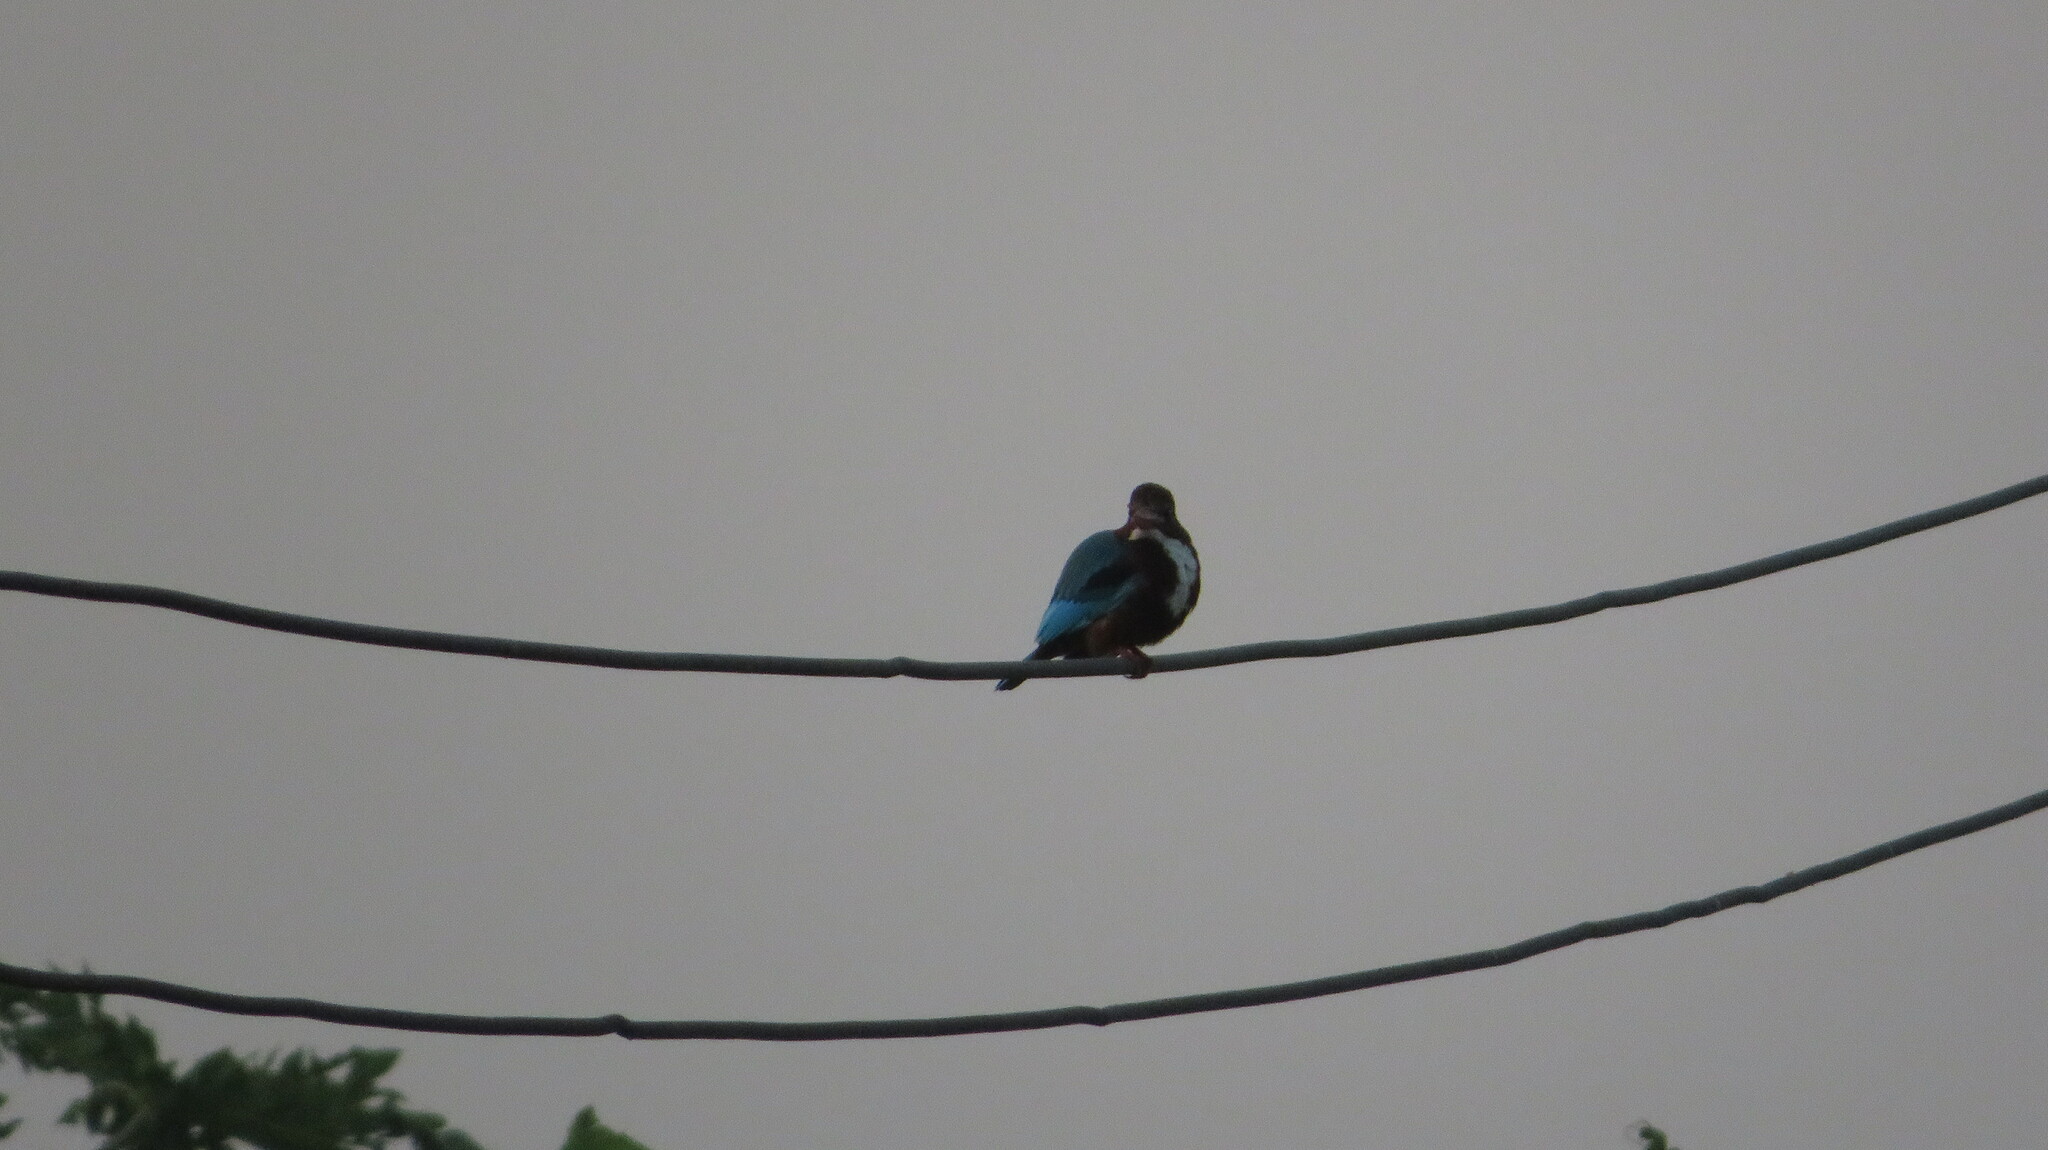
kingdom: Animalia
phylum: Chordata
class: Aves
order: Coraciiformes
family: Alcedinidae
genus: Halcyon
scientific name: Halcyon smyrnensis
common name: White-throated kingfisher
